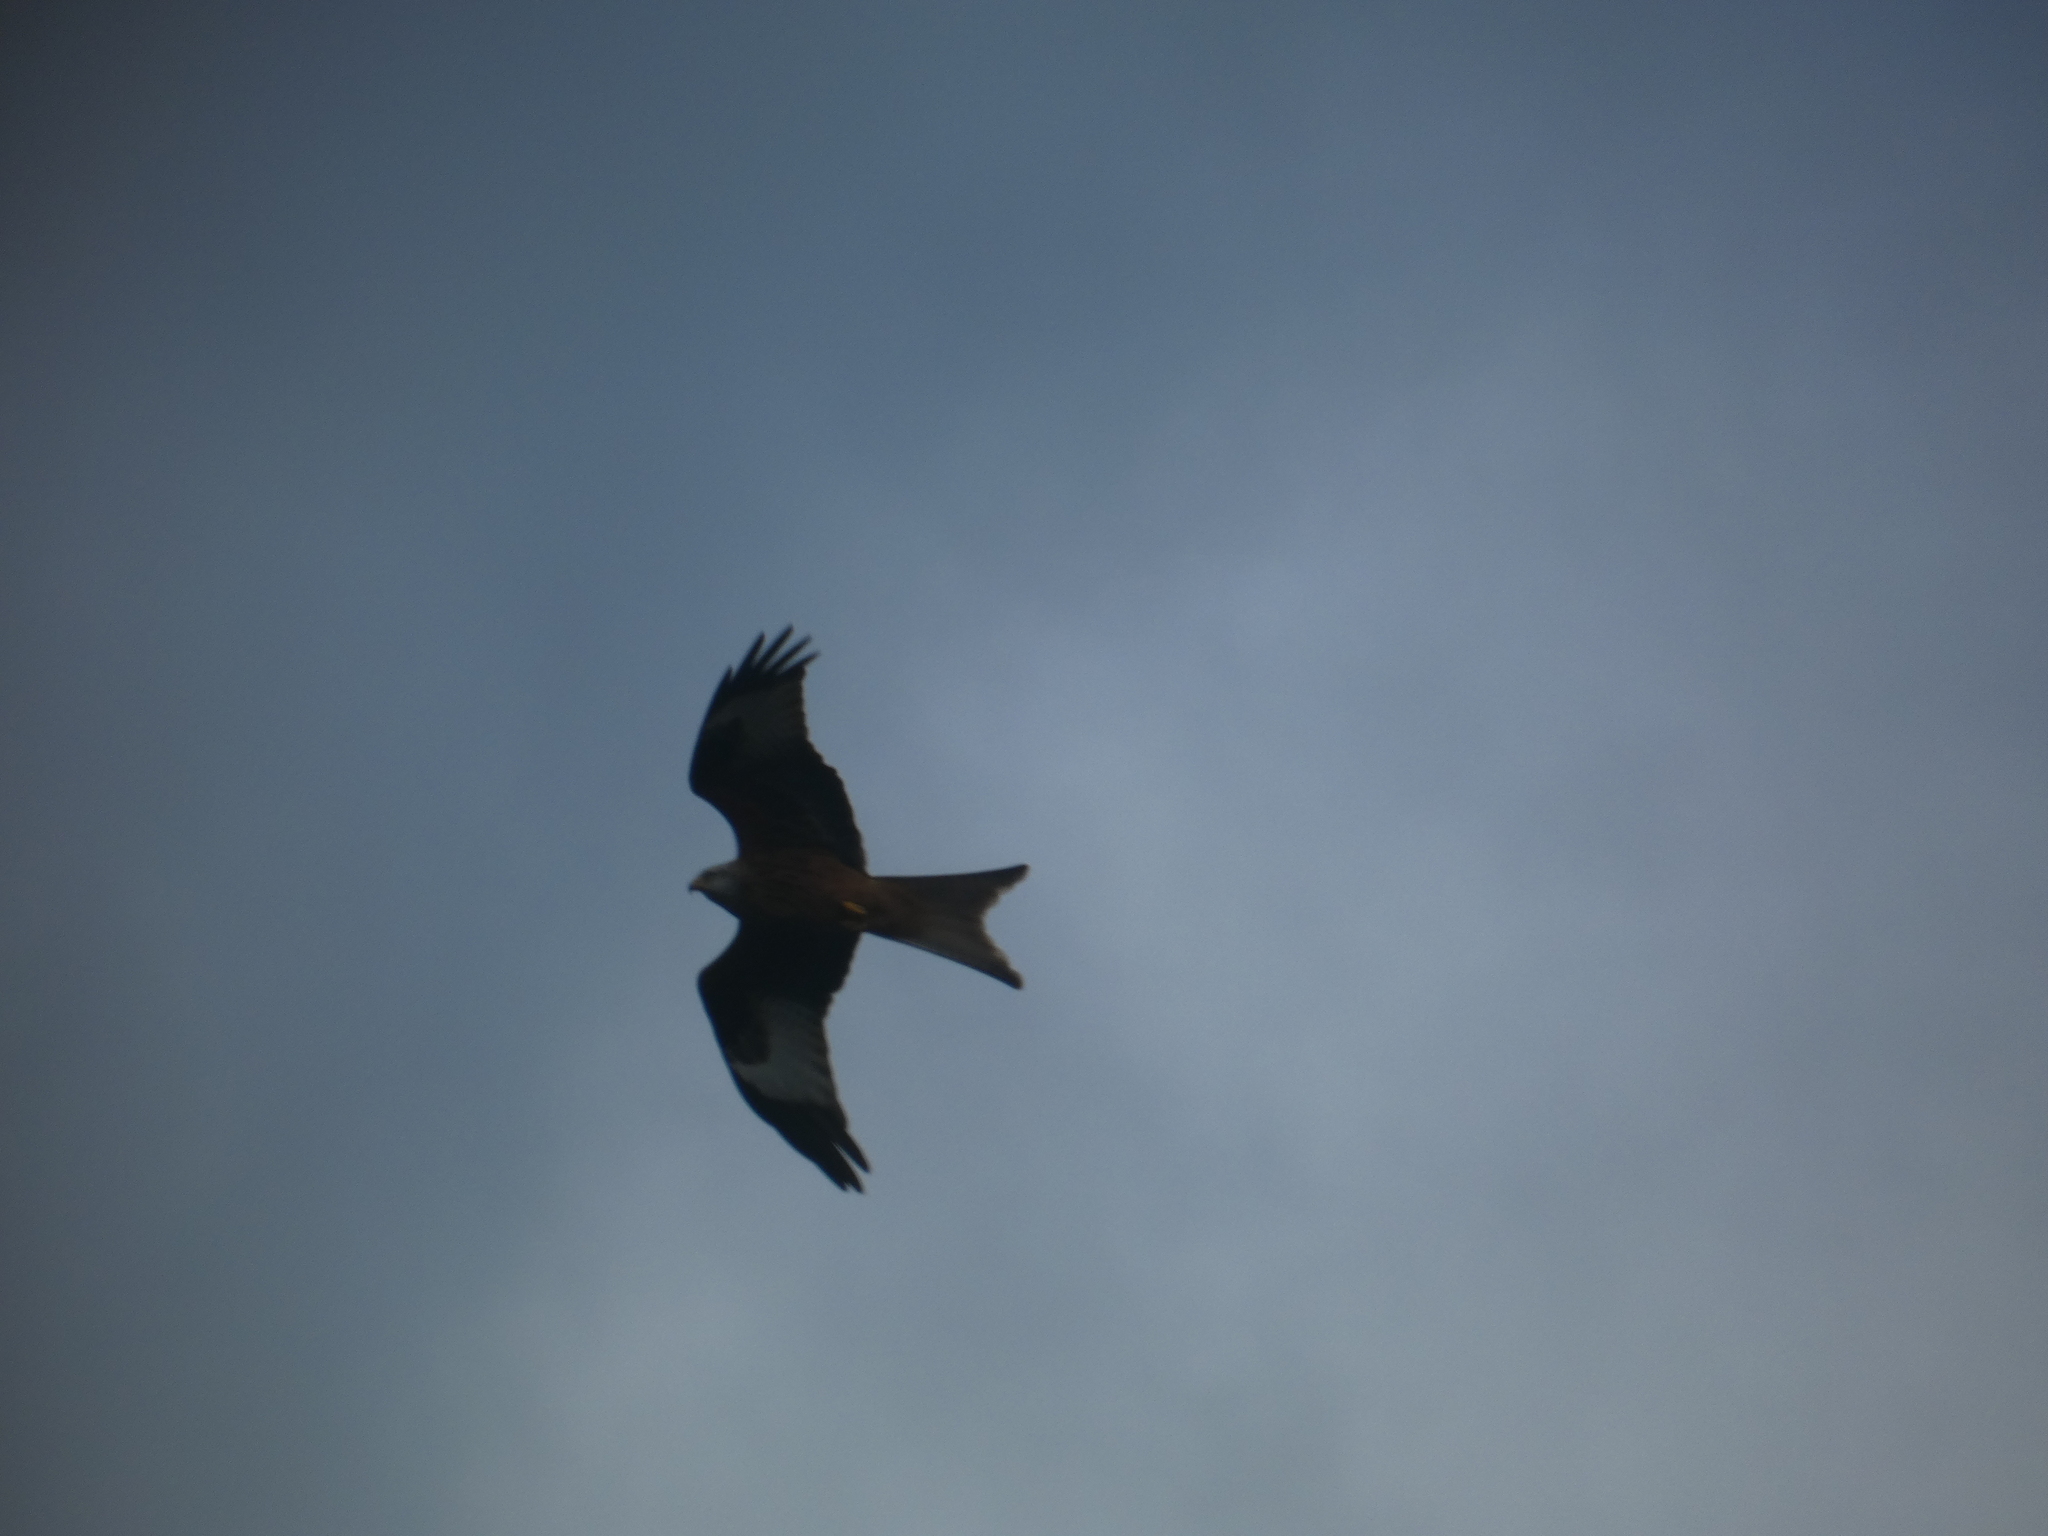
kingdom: Animalia
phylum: Chordata
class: Aves
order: Accipitriformes
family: Accipitridae
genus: Milvus
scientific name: Milvus milvus
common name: Red kite
